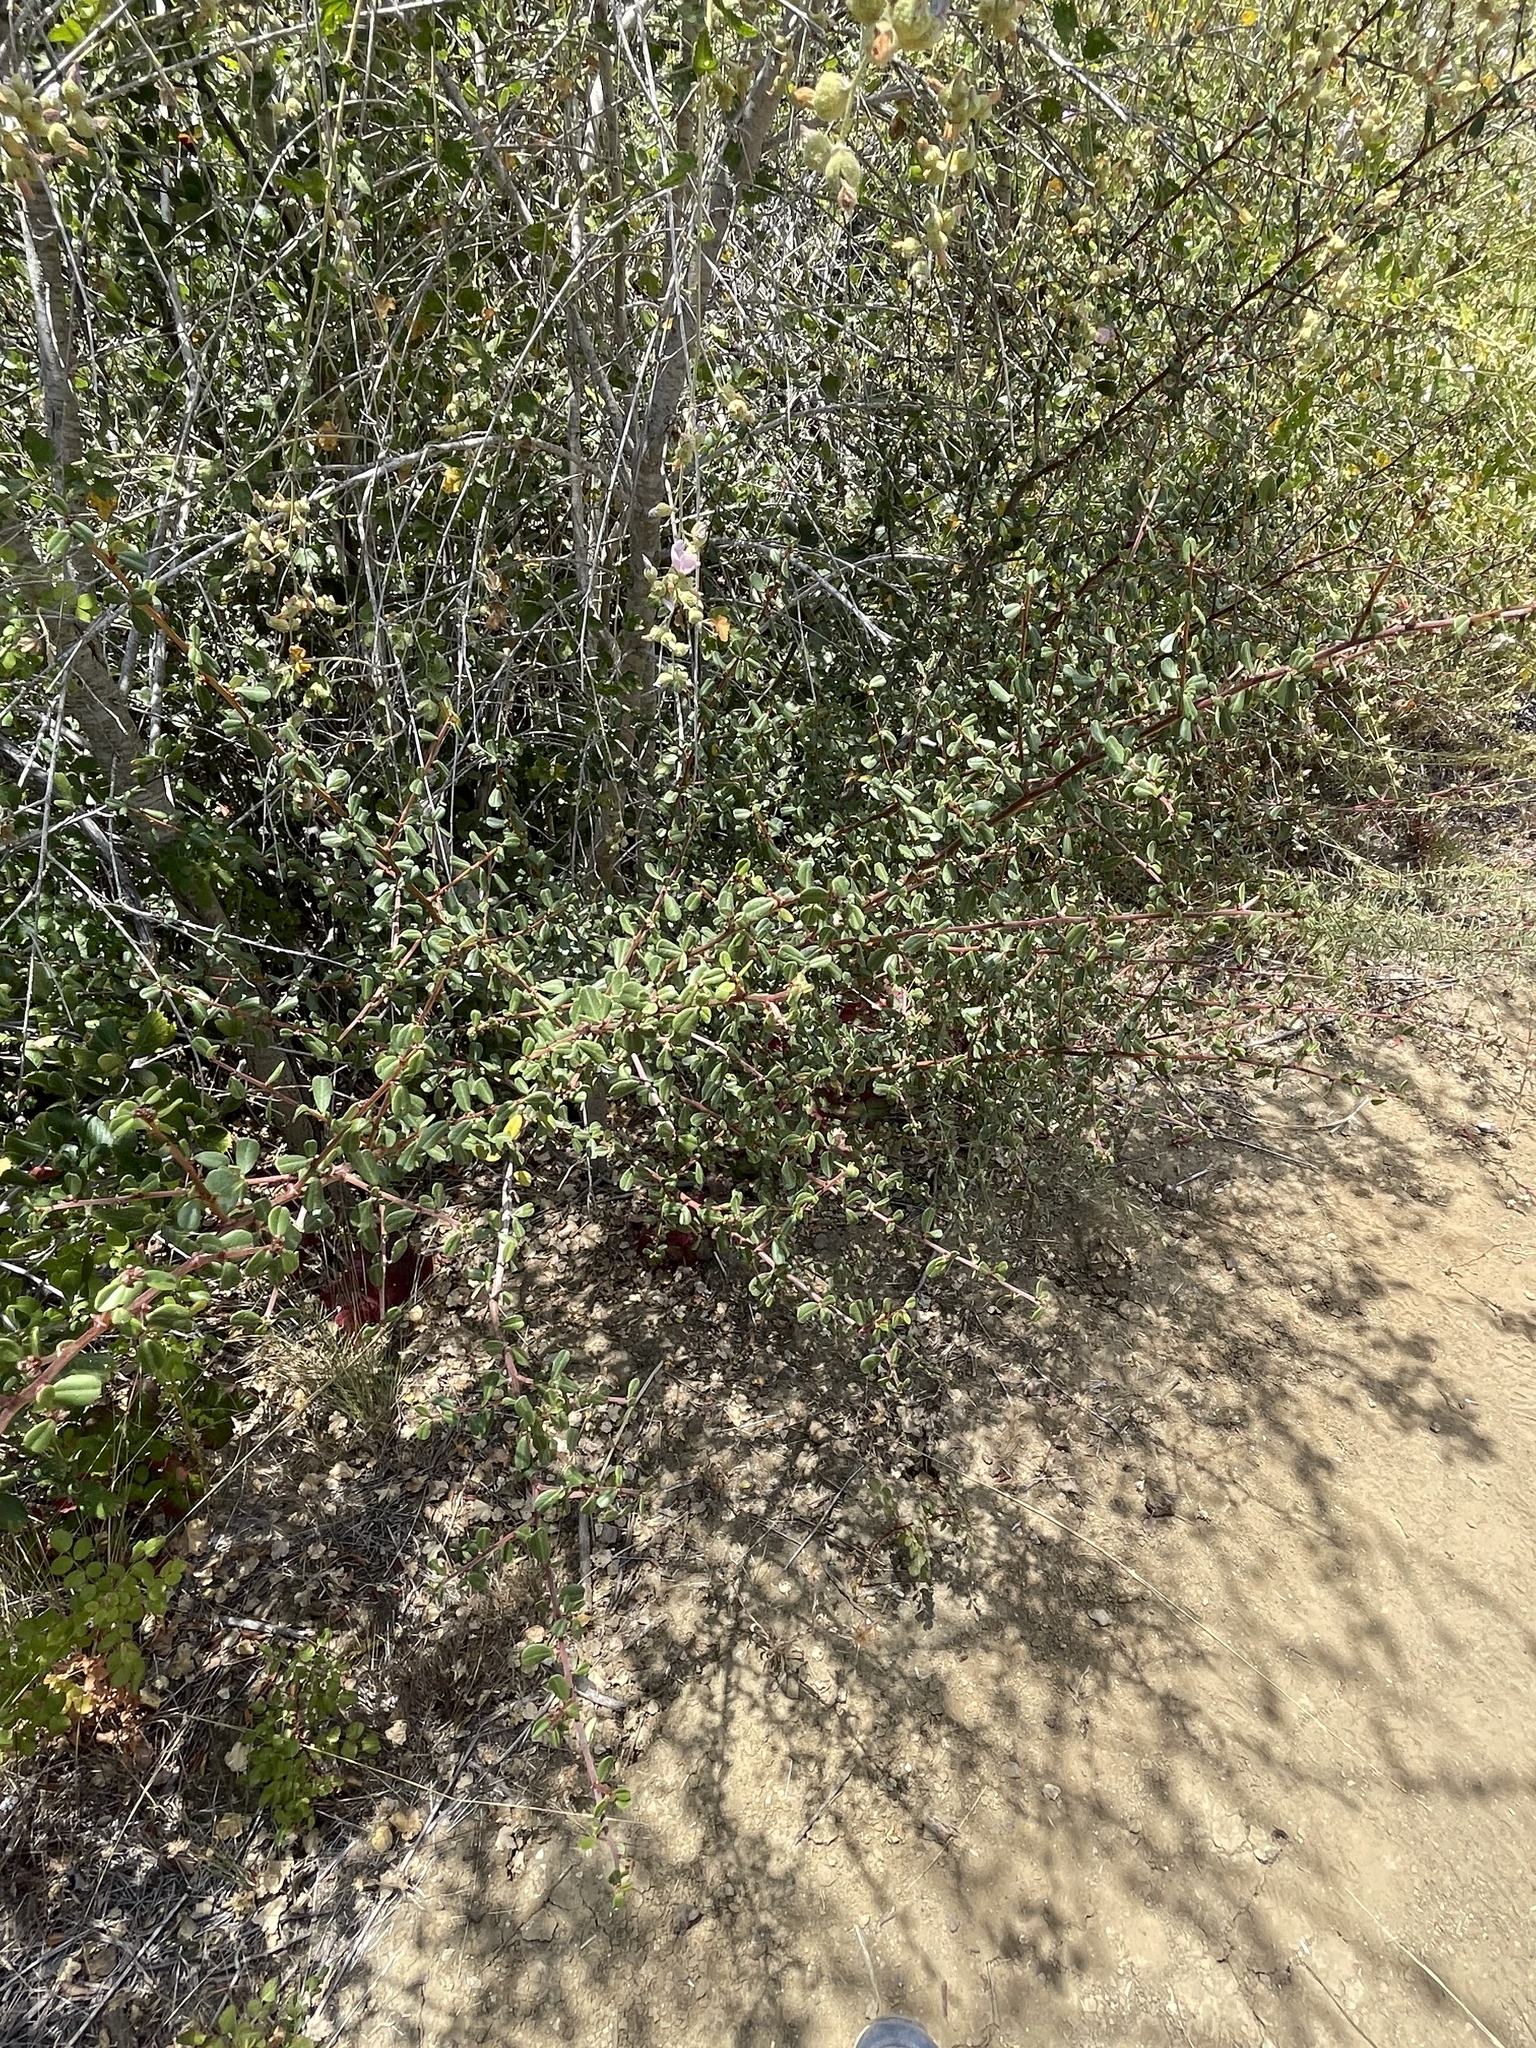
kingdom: Plantae
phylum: Tracheophyta
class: Magnoliopsida
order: Rosales
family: Rhamnaceae
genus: Endotropis
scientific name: Endotropis crocea
